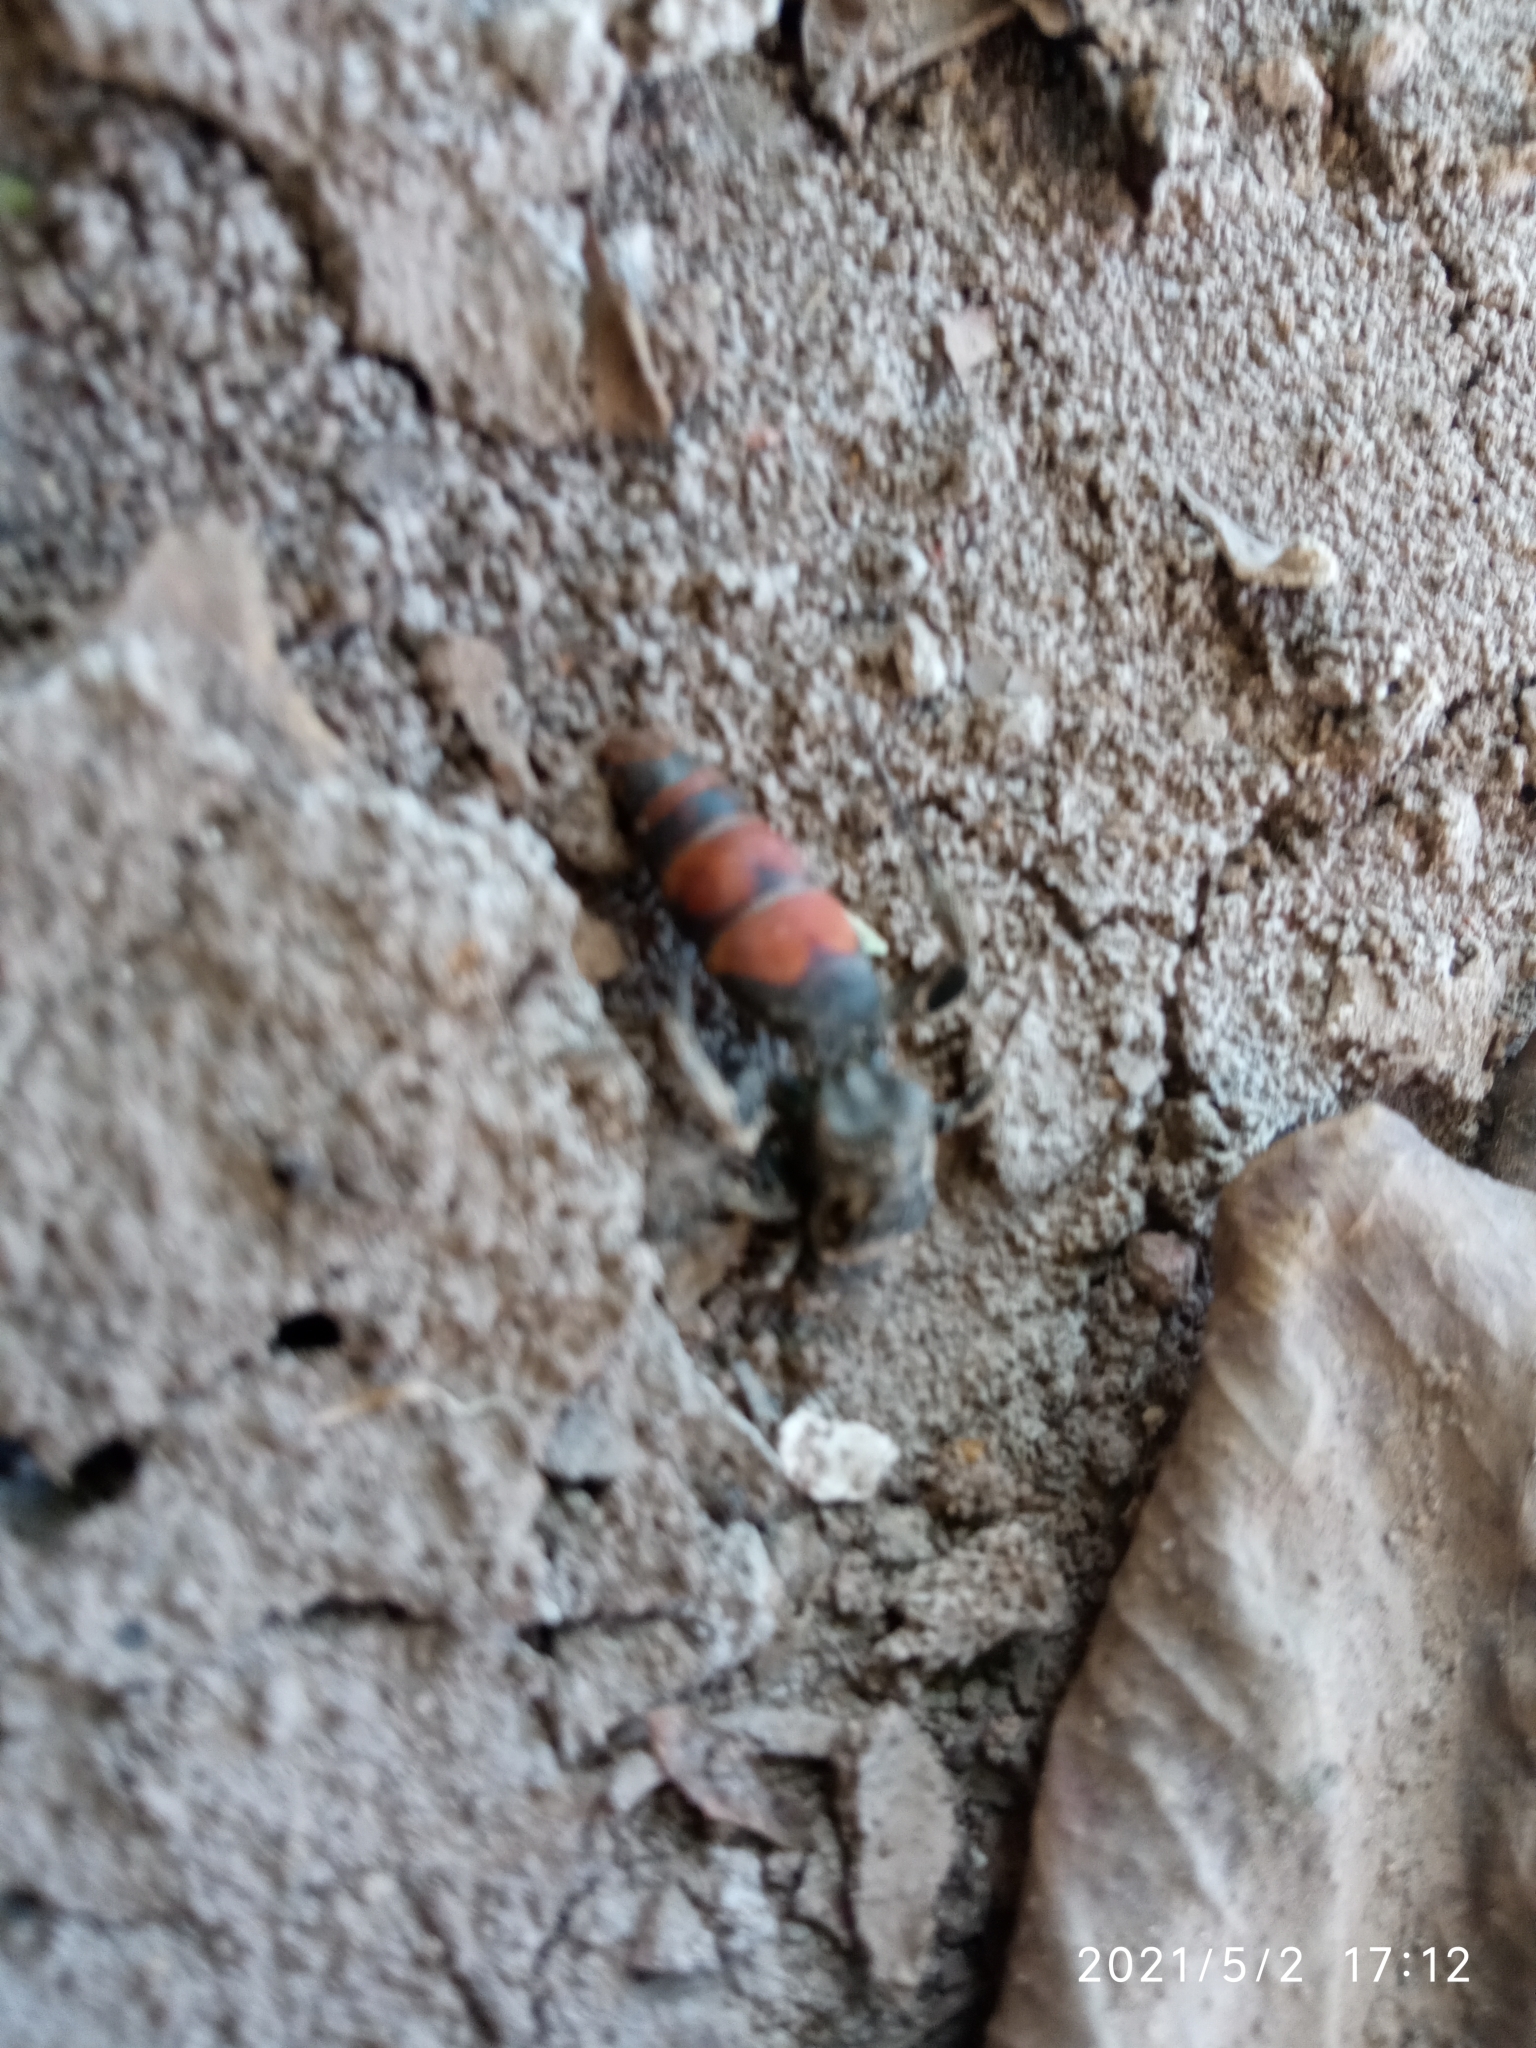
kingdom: Animalia
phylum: Arthropoda
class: Insecta
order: Hymenoptera
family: Scoliidae
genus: Dielis
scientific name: Dielis tolteca
